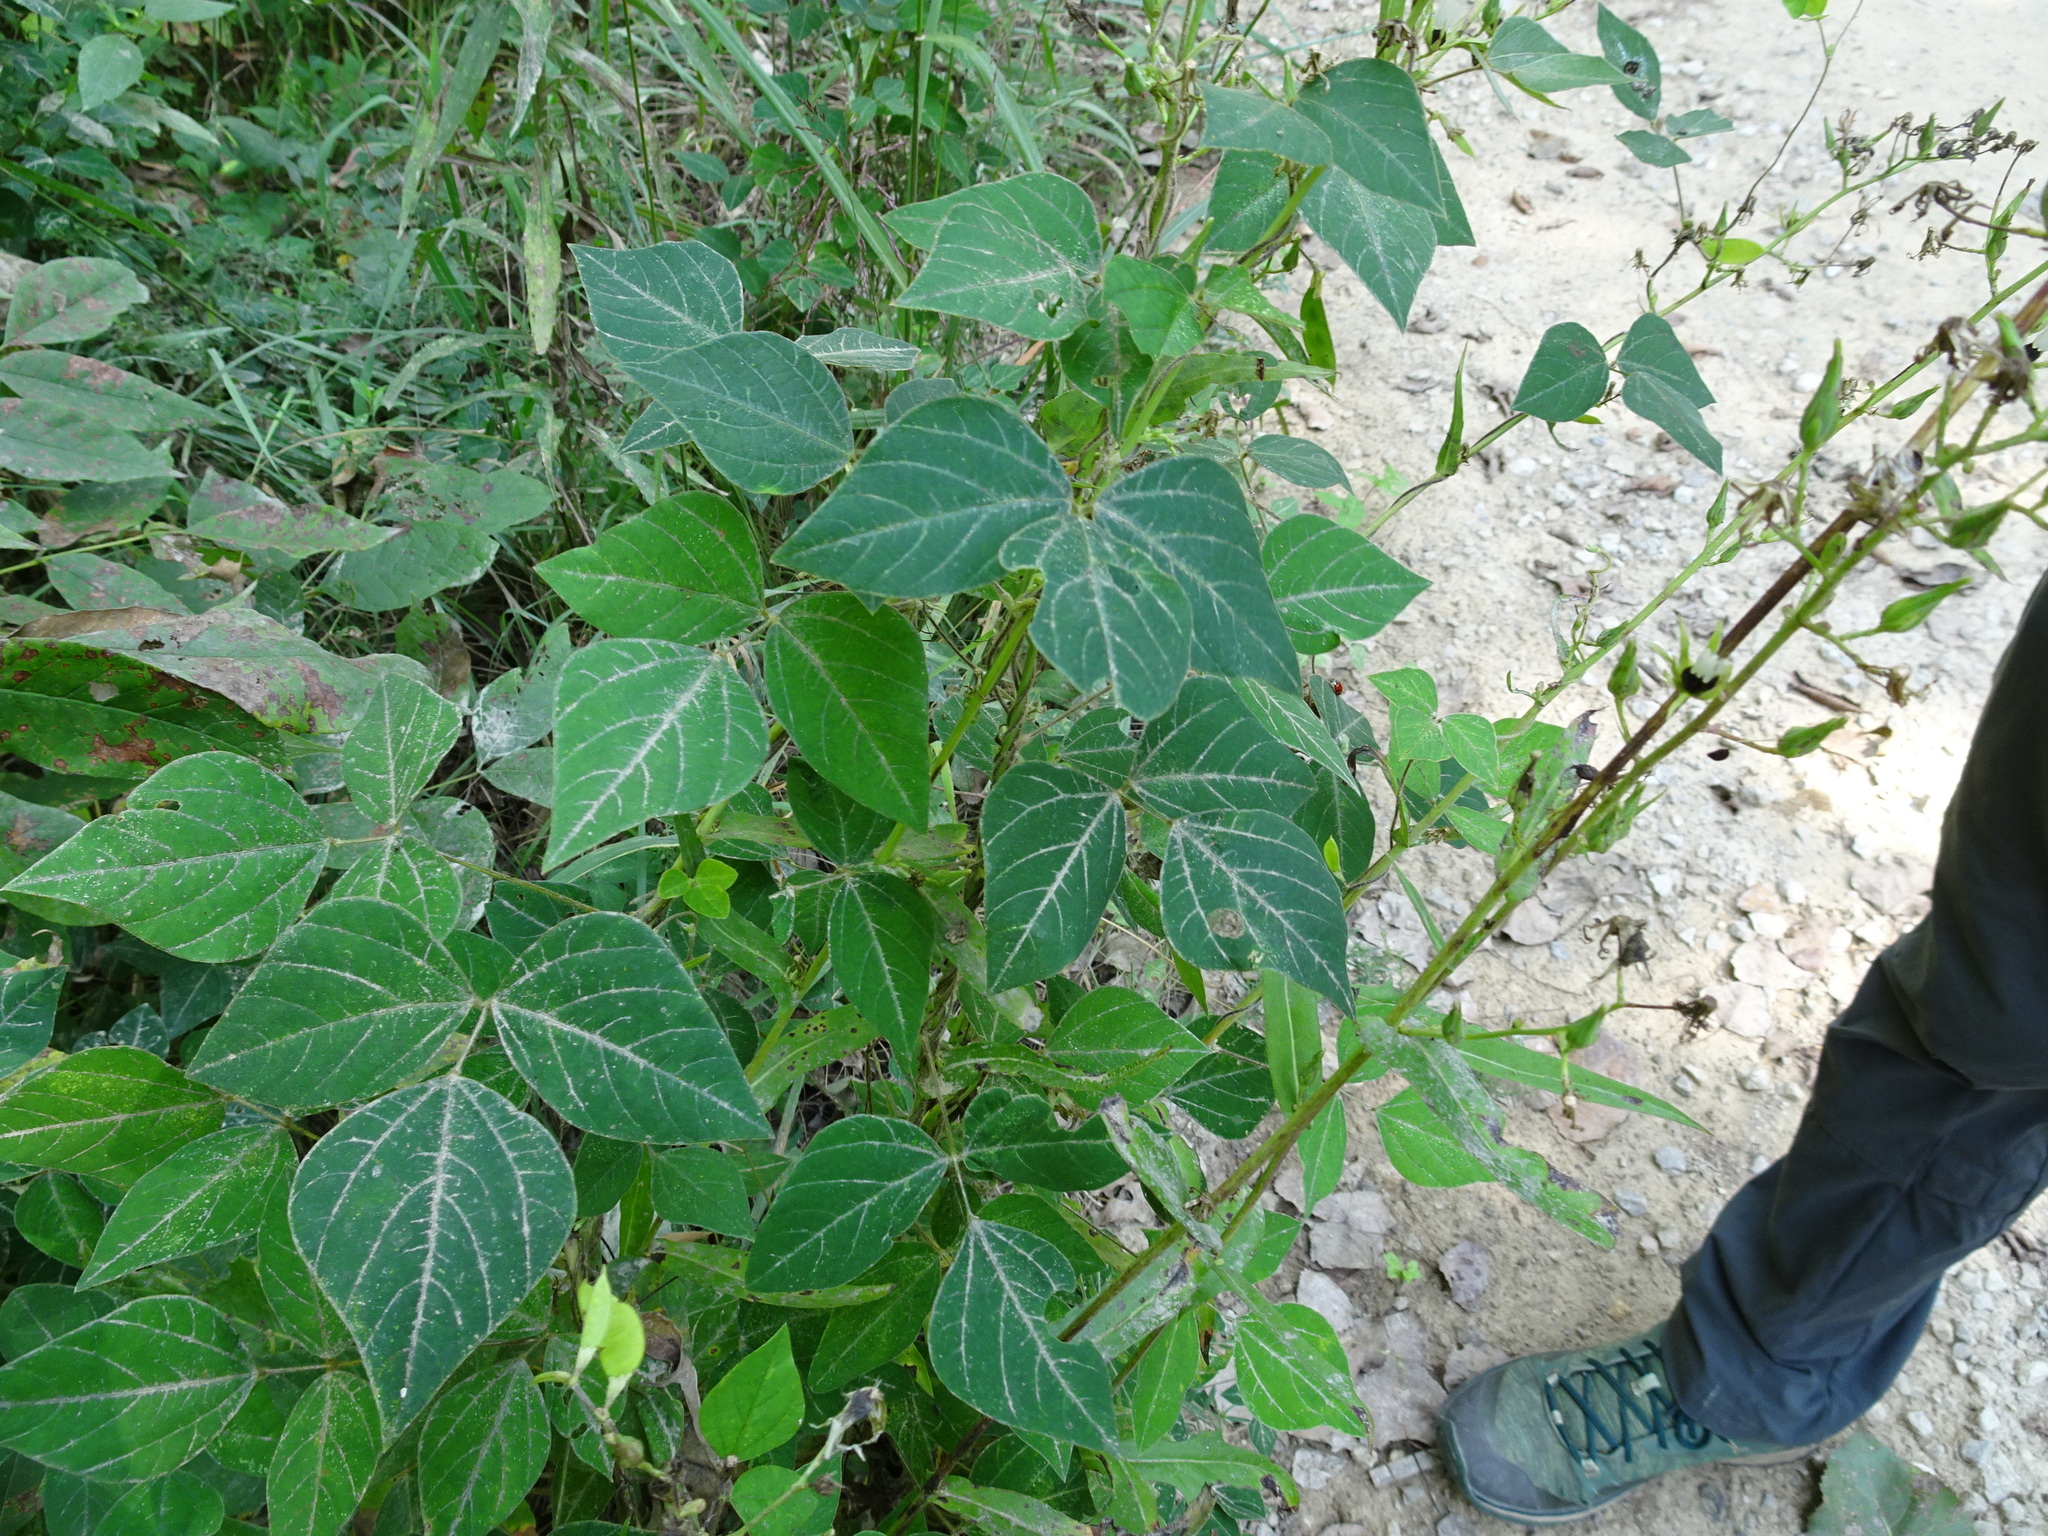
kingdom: Plantae
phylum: Tracheophyta
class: Magnoliopsida
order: Fabales
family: Fabaceae
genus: Amphicarpaea
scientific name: Amphicarpaea bracteata
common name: American hog peanut
